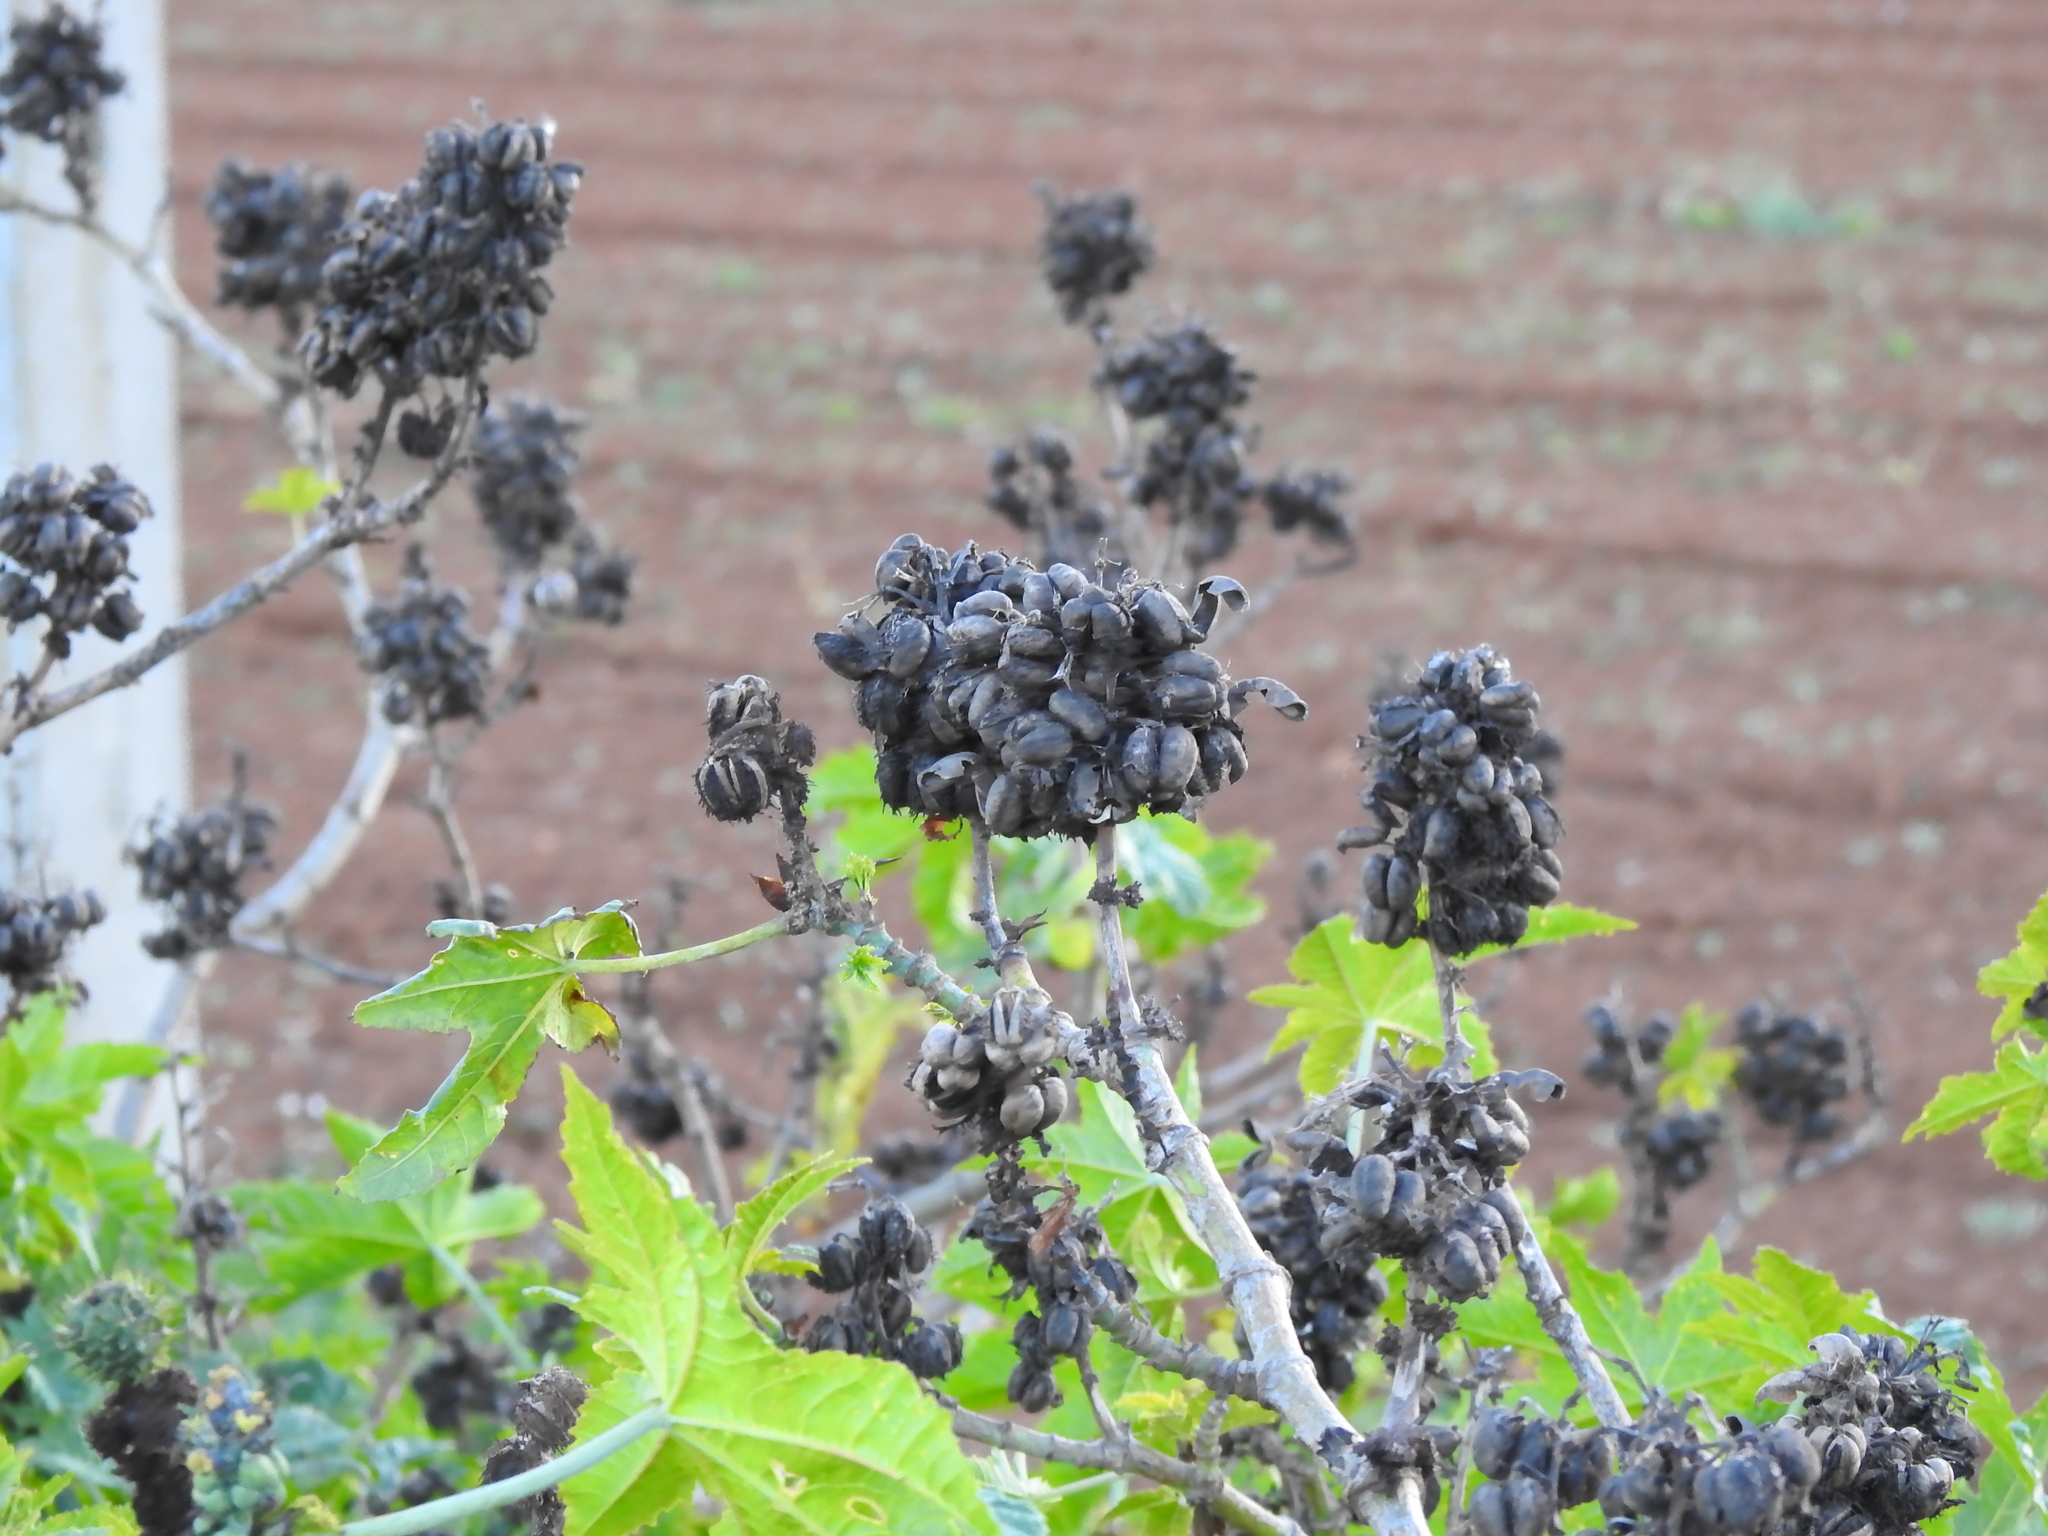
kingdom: Plantae
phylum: Tracheophyta
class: Magnoliopsida
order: Malpighiales
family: Euphorbiaceae
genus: Ricinus
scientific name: Ricinus communis
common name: Castor-oil-plant
